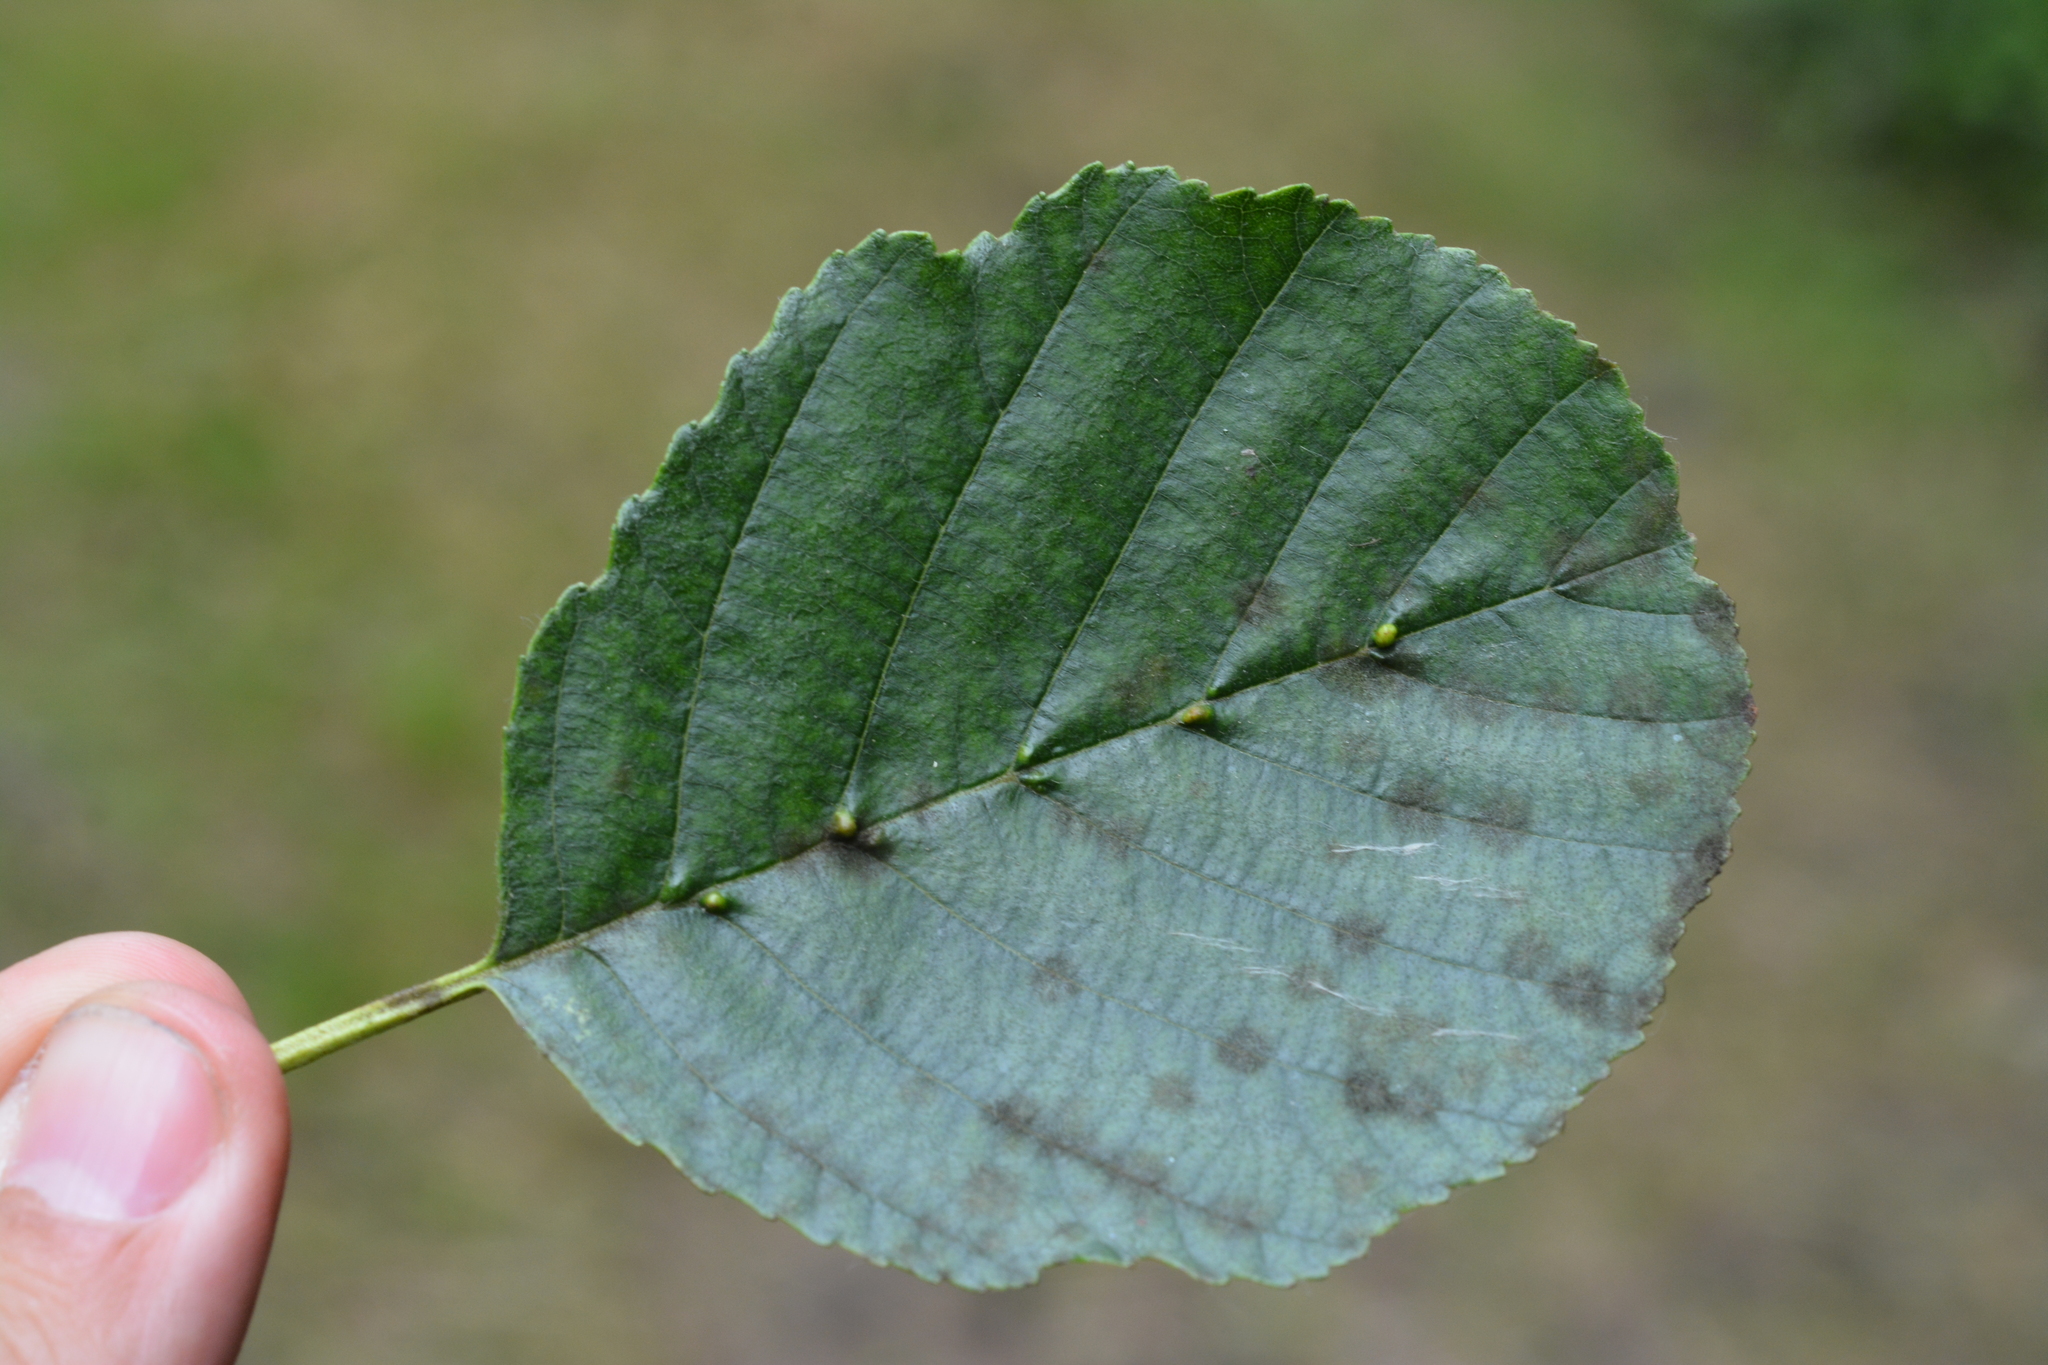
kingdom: Animalia
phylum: Arthropoda
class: Arachnida
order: Trombidiformes
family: Eriophyidae
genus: Aceria
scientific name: Aceria nalepai
